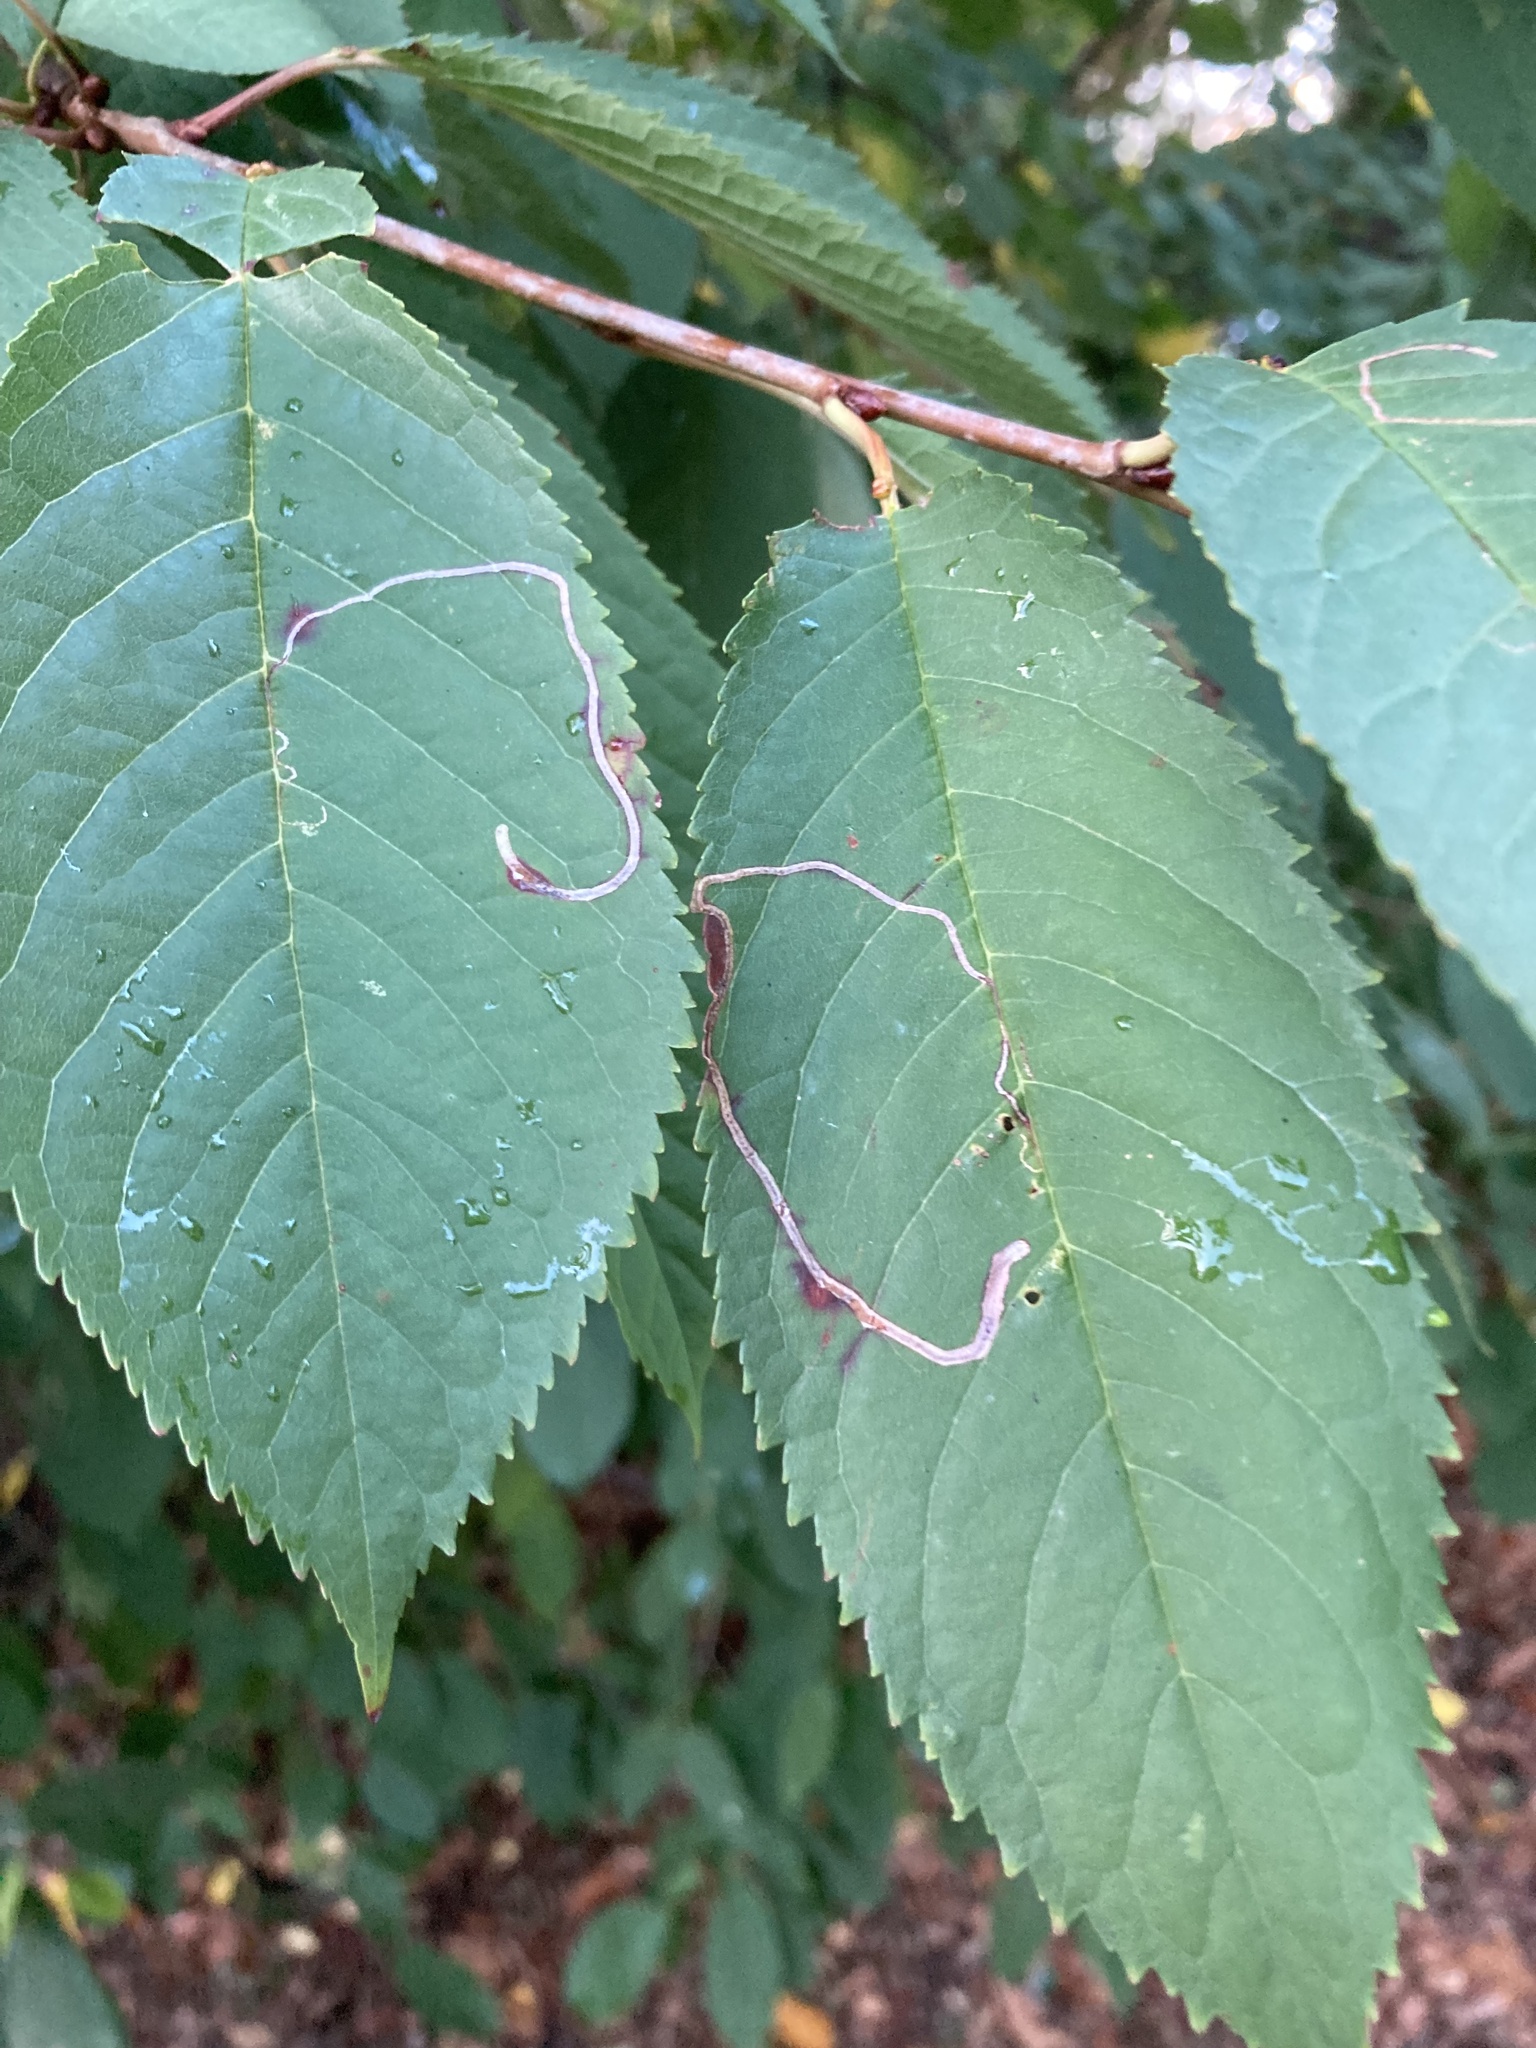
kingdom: Animalia
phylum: Arthropoda
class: Insecta
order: Lepidoptera
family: Lyonetiidae
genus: Lyonetia
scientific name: Lyonetia clerkella
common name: Apple leaf miner
